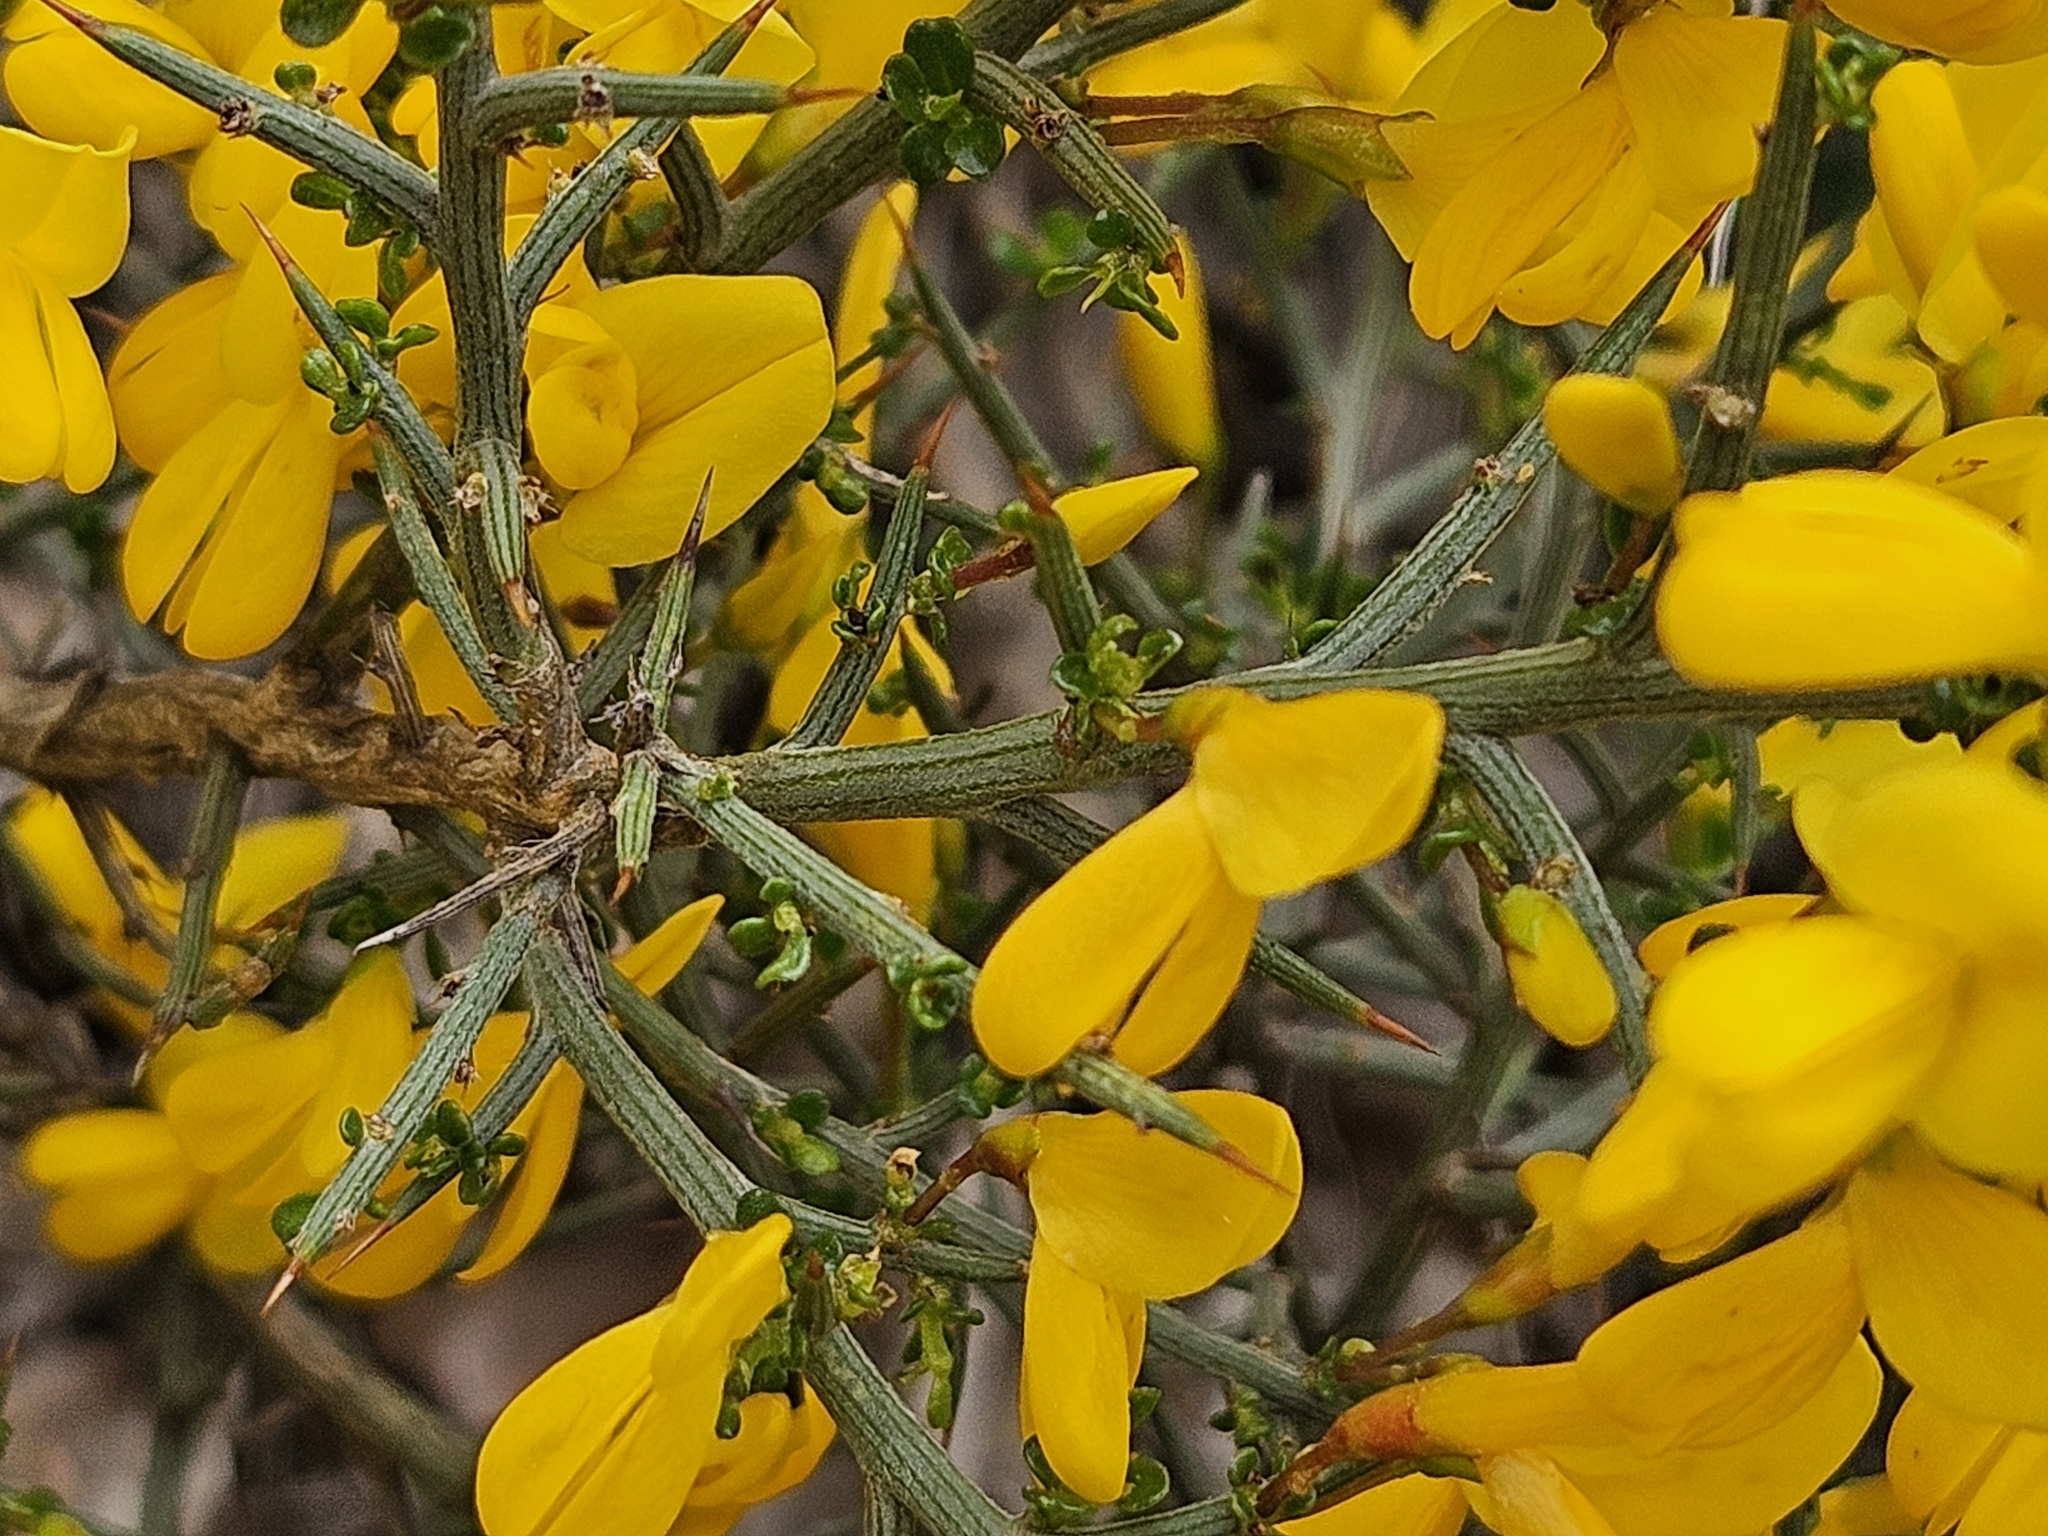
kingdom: Plantae
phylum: Tracheophyta
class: Magnoliopsida
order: Fabales
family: Fabaceae
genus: Genista
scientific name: Genista scorpius
